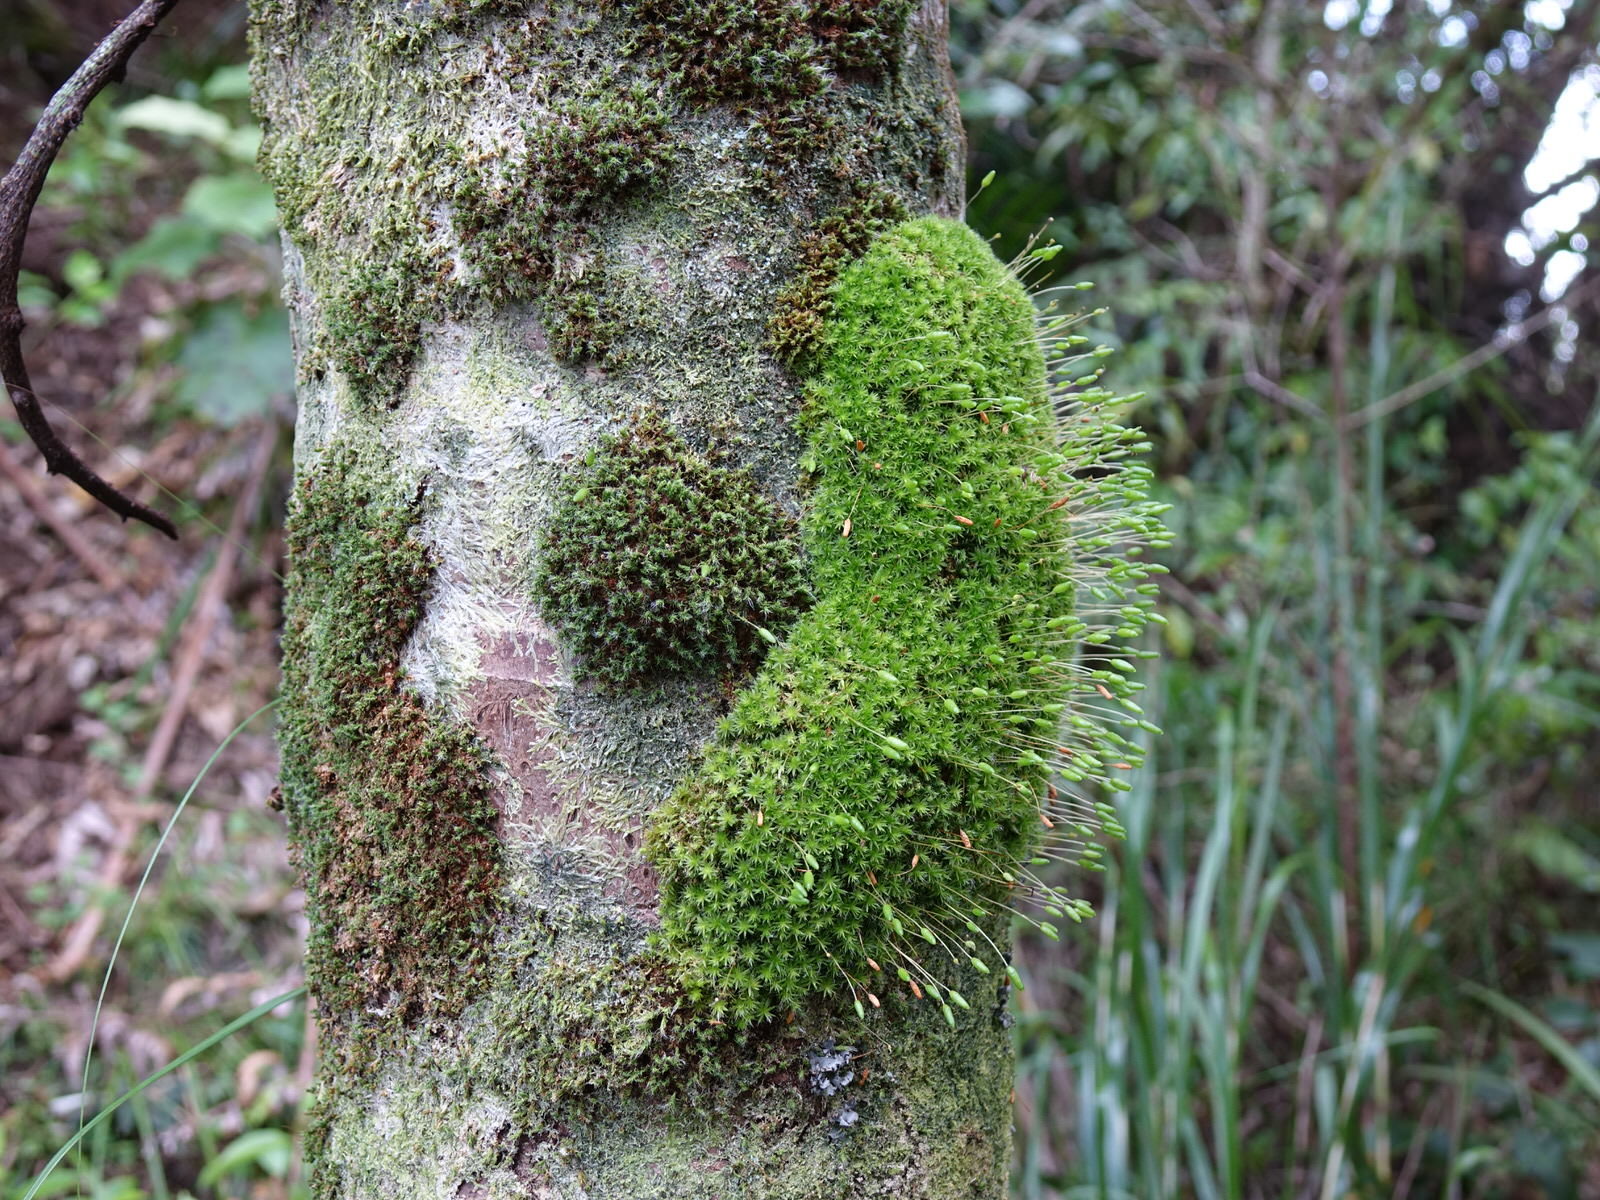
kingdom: Plantae
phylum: Bryophyta
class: Bryopsida
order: Bryales
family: Leptostomataceae
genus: Leptostomum
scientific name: Leptostomum macrocarpon
